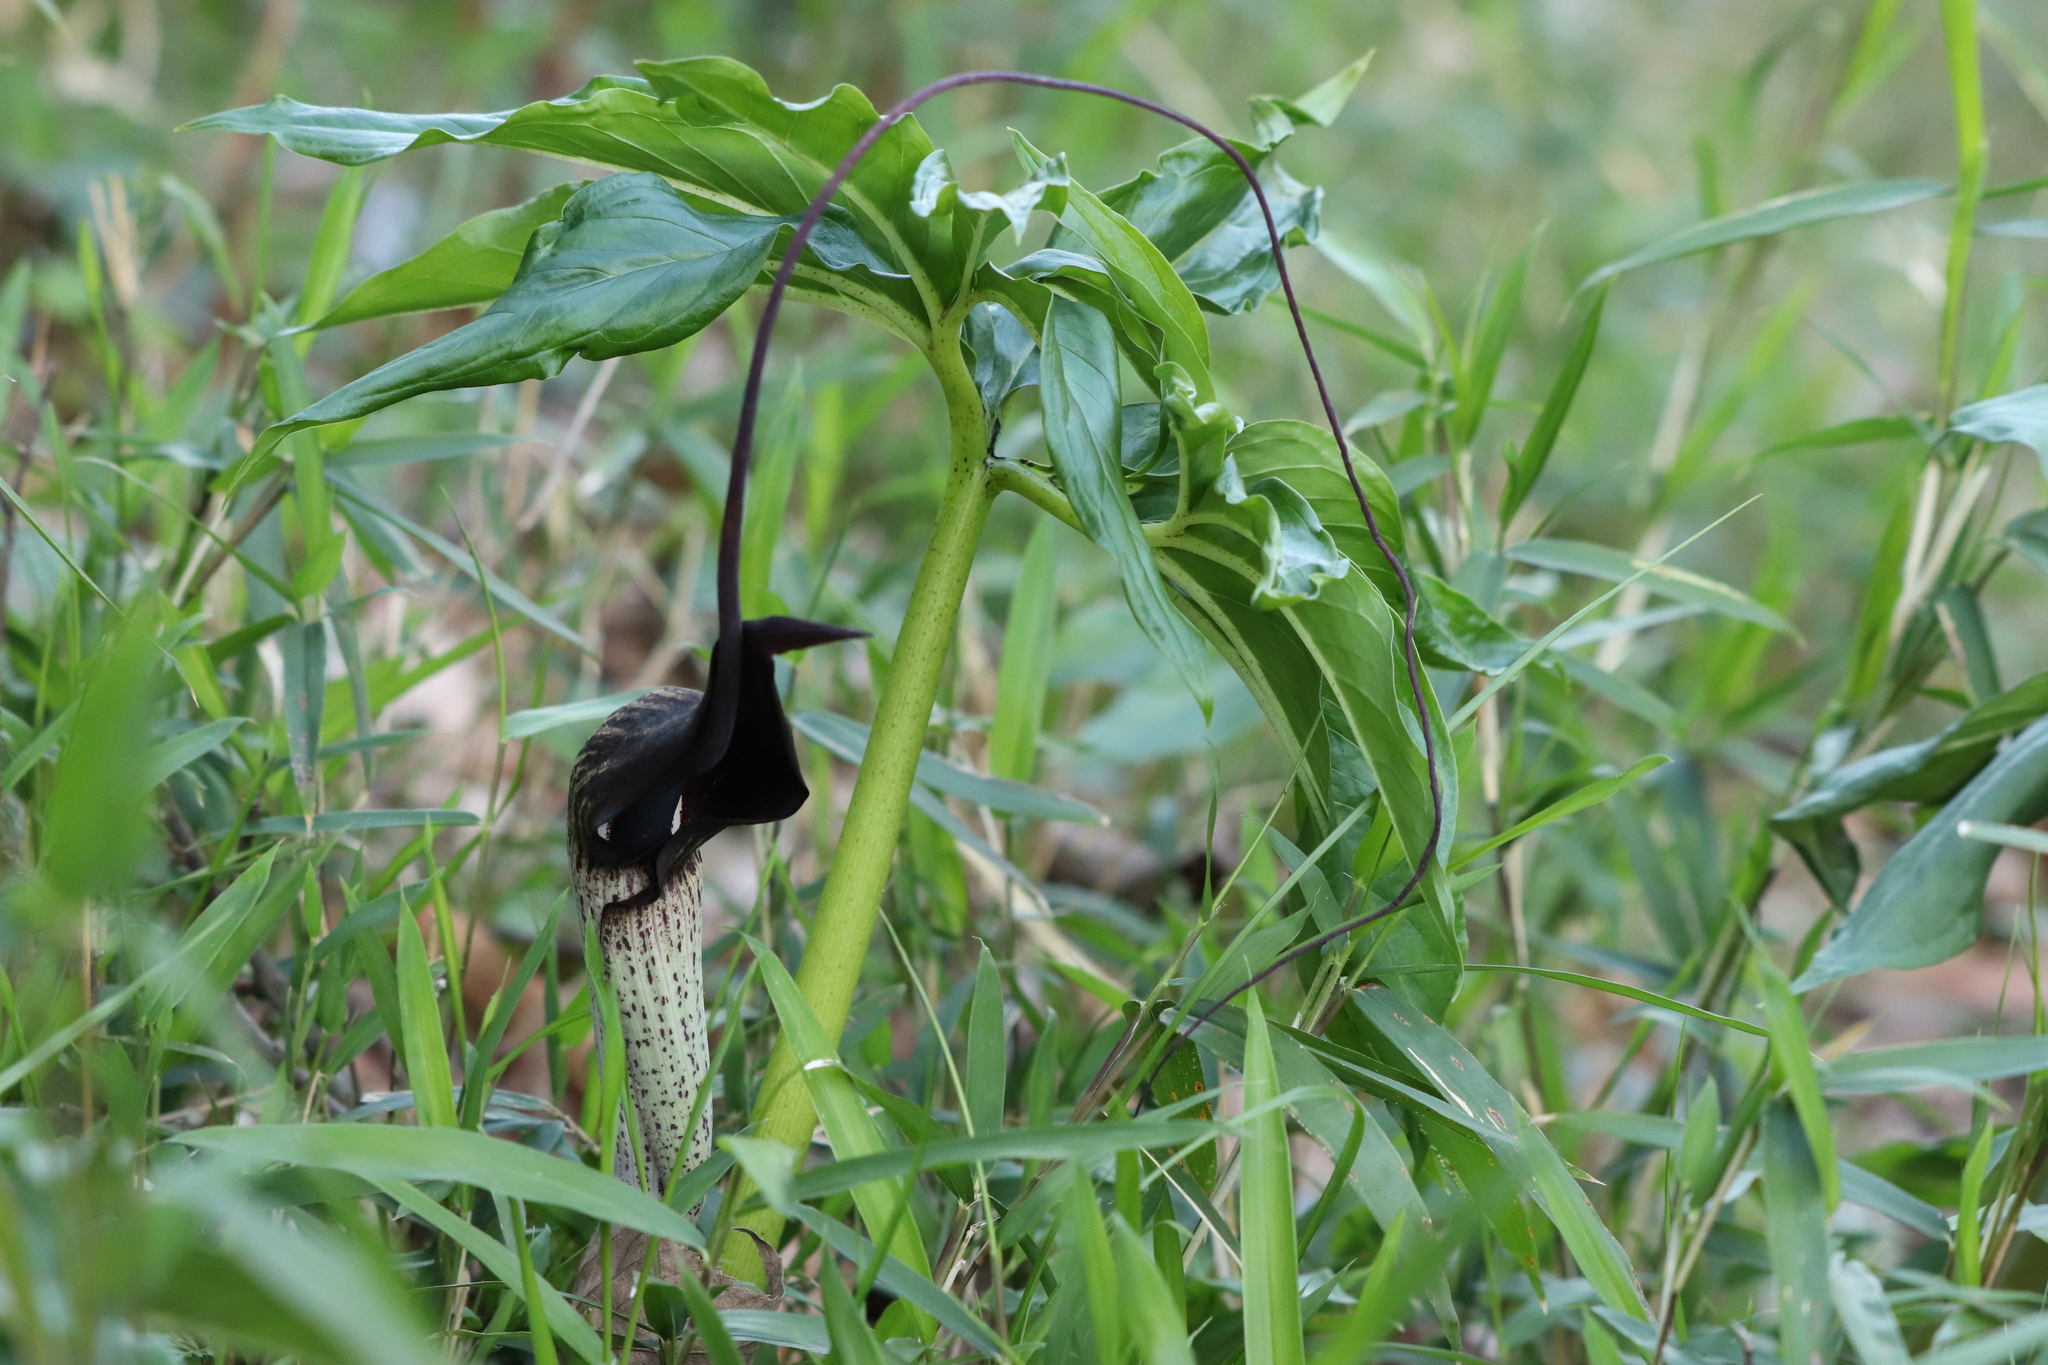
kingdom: Plantae
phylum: Tracheophyta
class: Liliopsida
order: Alismatales
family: Araceae
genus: Arisaema
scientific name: Arisaema thunbergii
